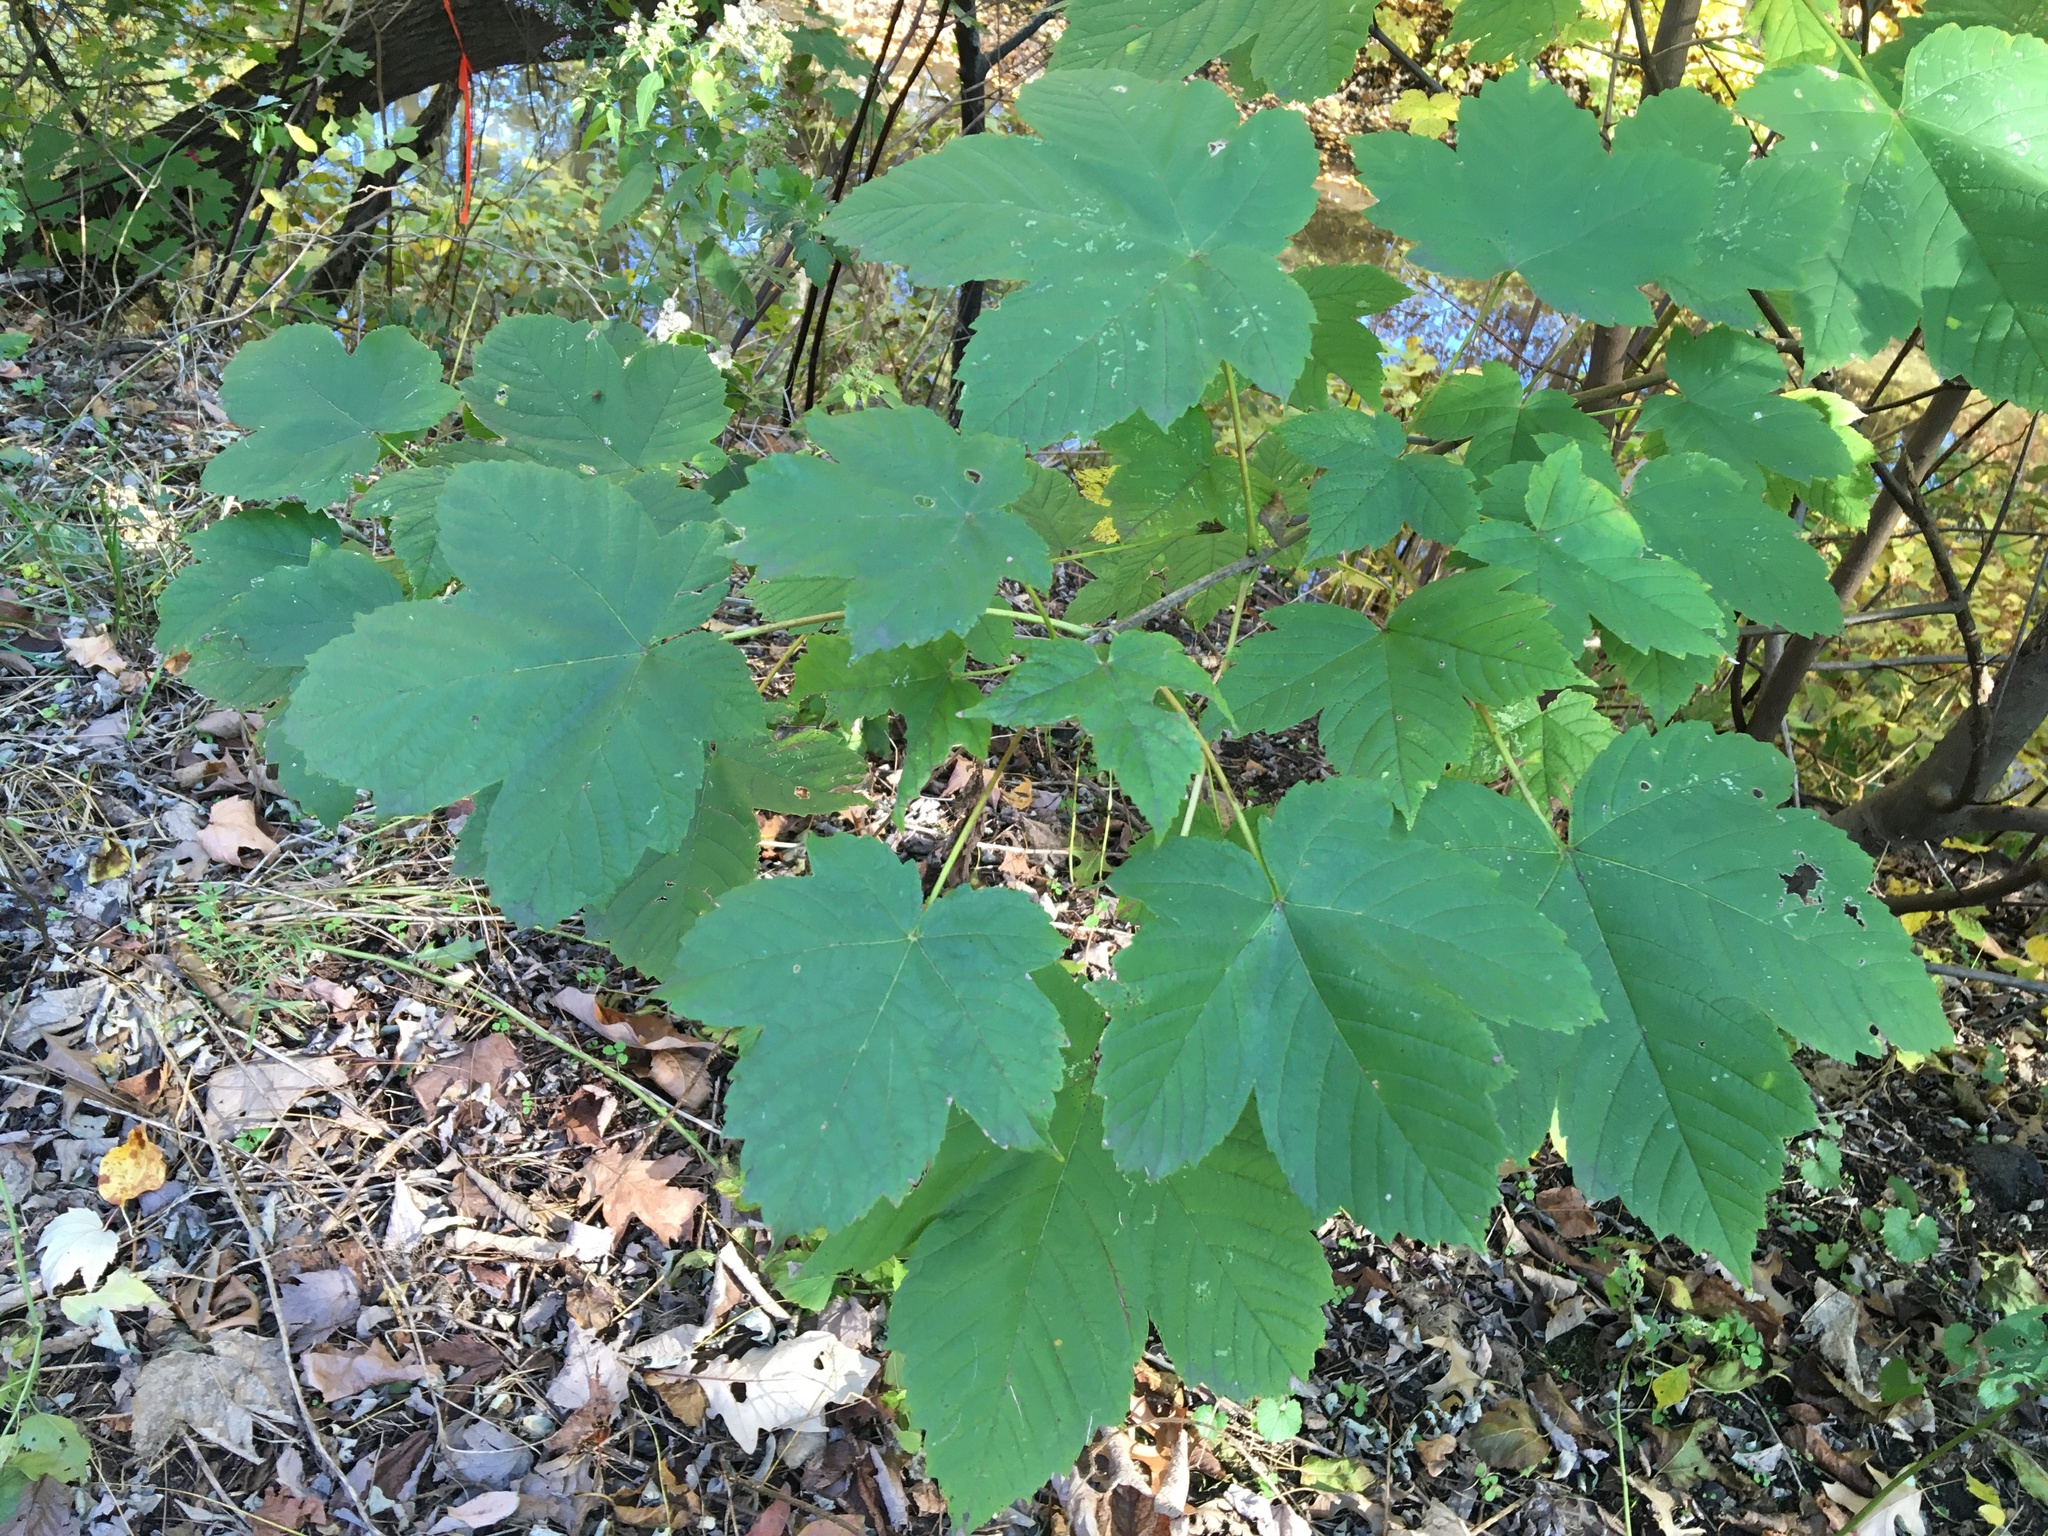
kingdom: Plantae
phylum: Tracheophyta
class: Magnoliopsida
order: Sapindales
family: Sapindaceae
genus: Acer
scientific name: Acer pseudoplatanus
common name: Sycamore
